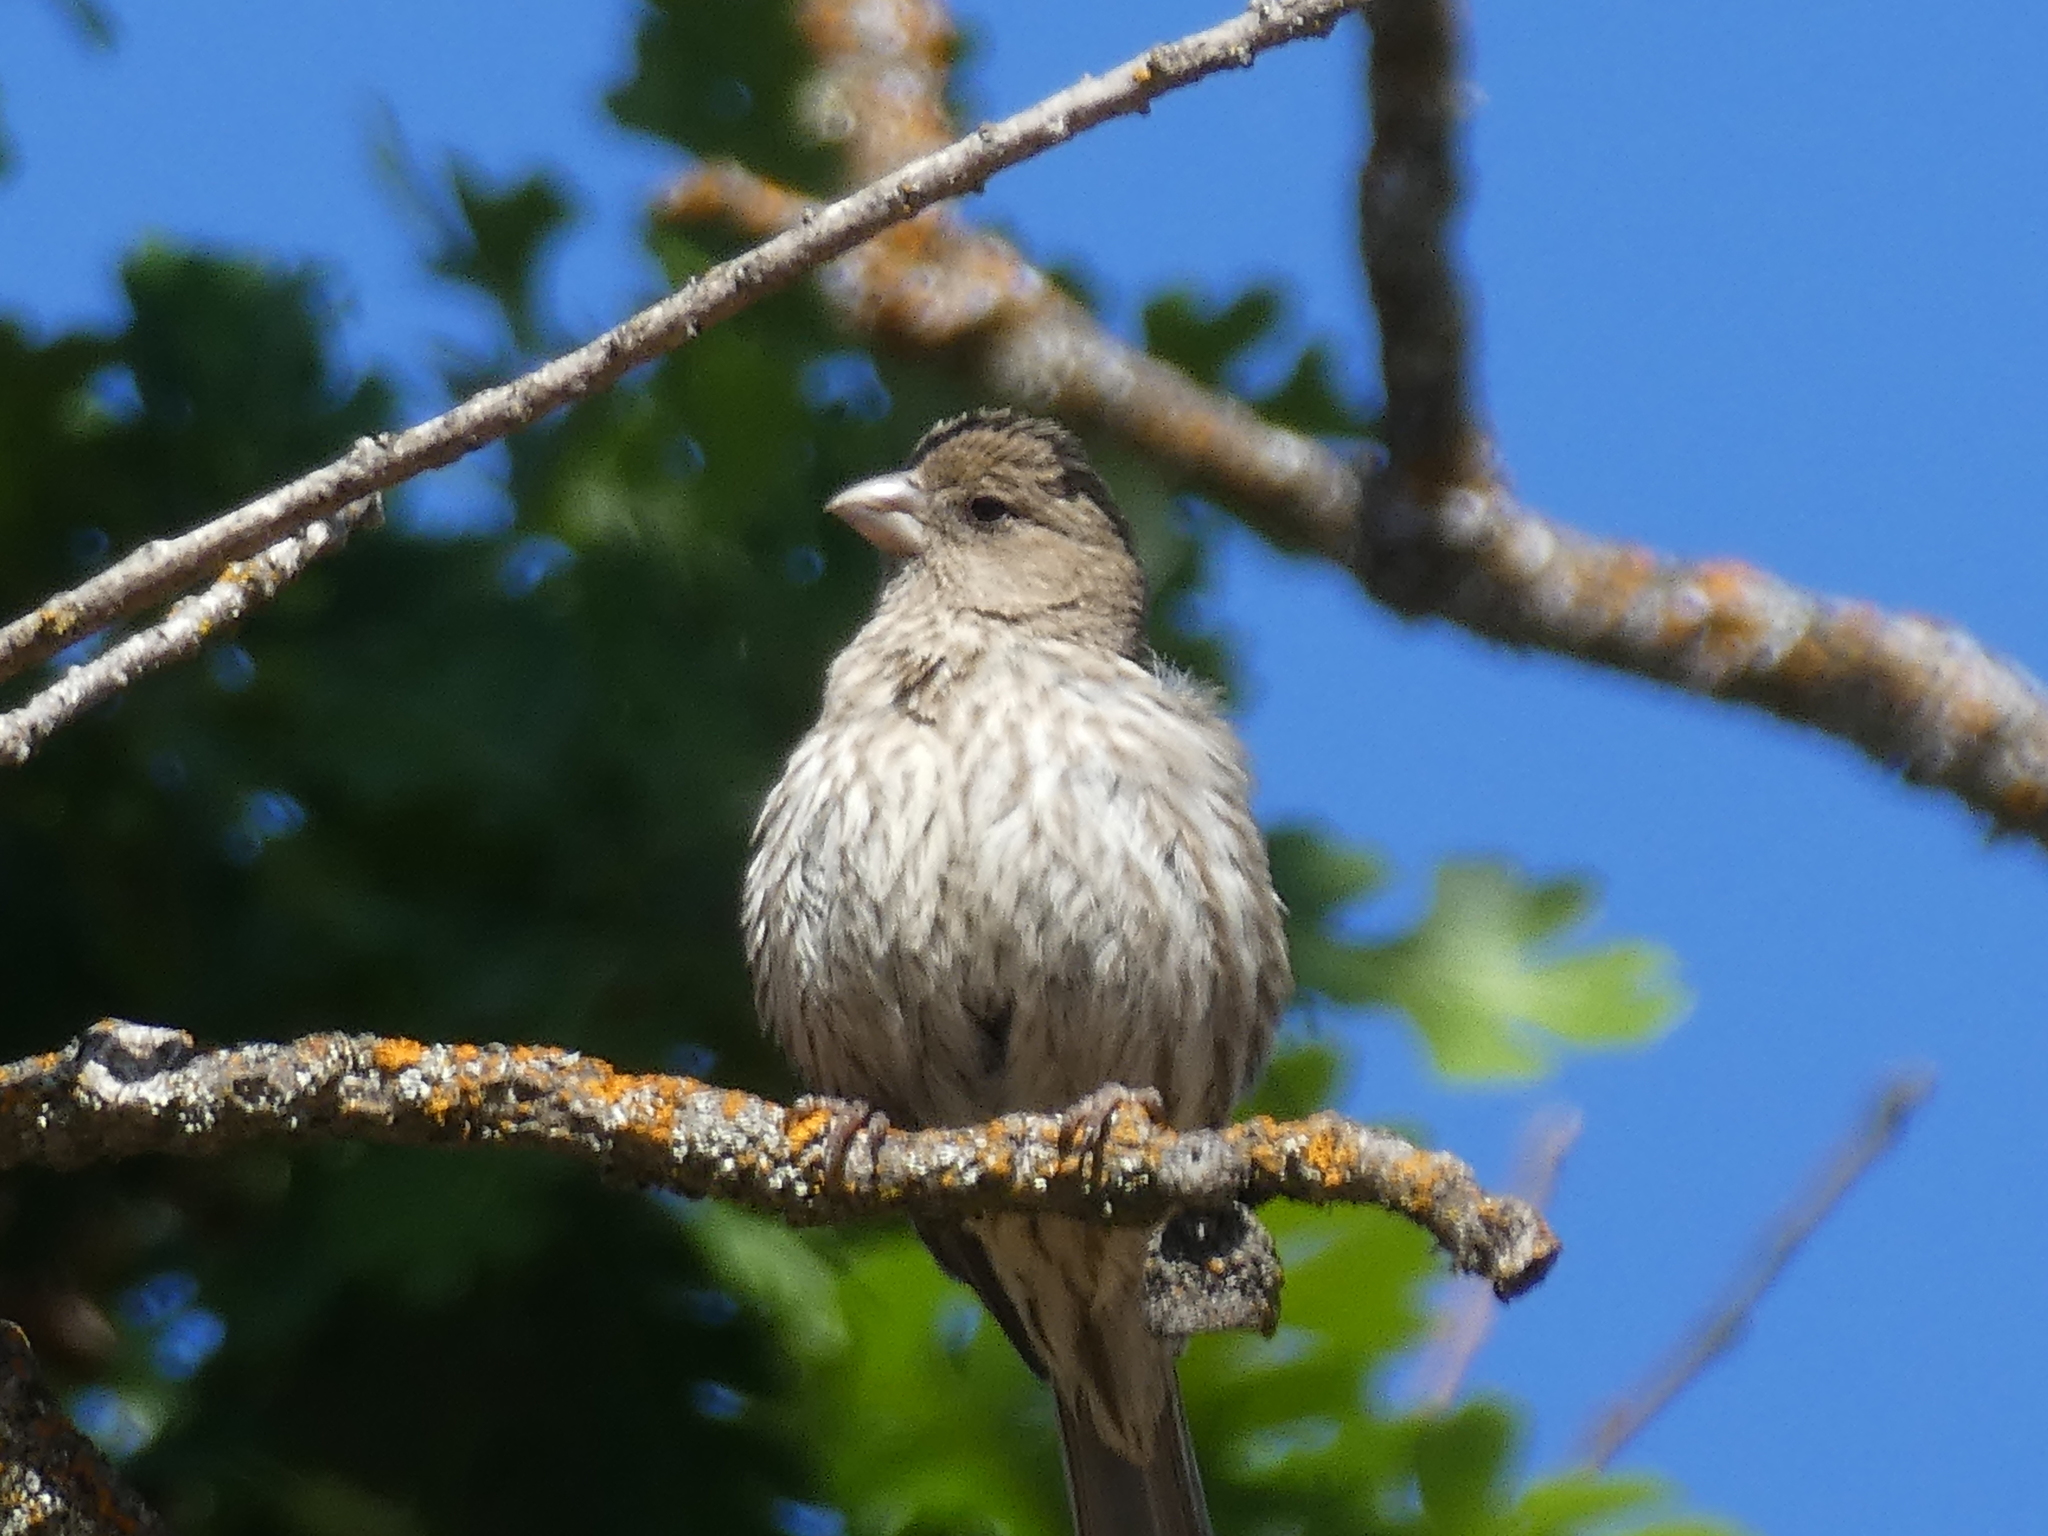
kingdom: Animalia
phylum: Chordata
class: Aves
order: Passeriformes
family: Fringillidae
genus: Haemorhous
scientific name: Haemorhous mexicanus
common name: House finch
